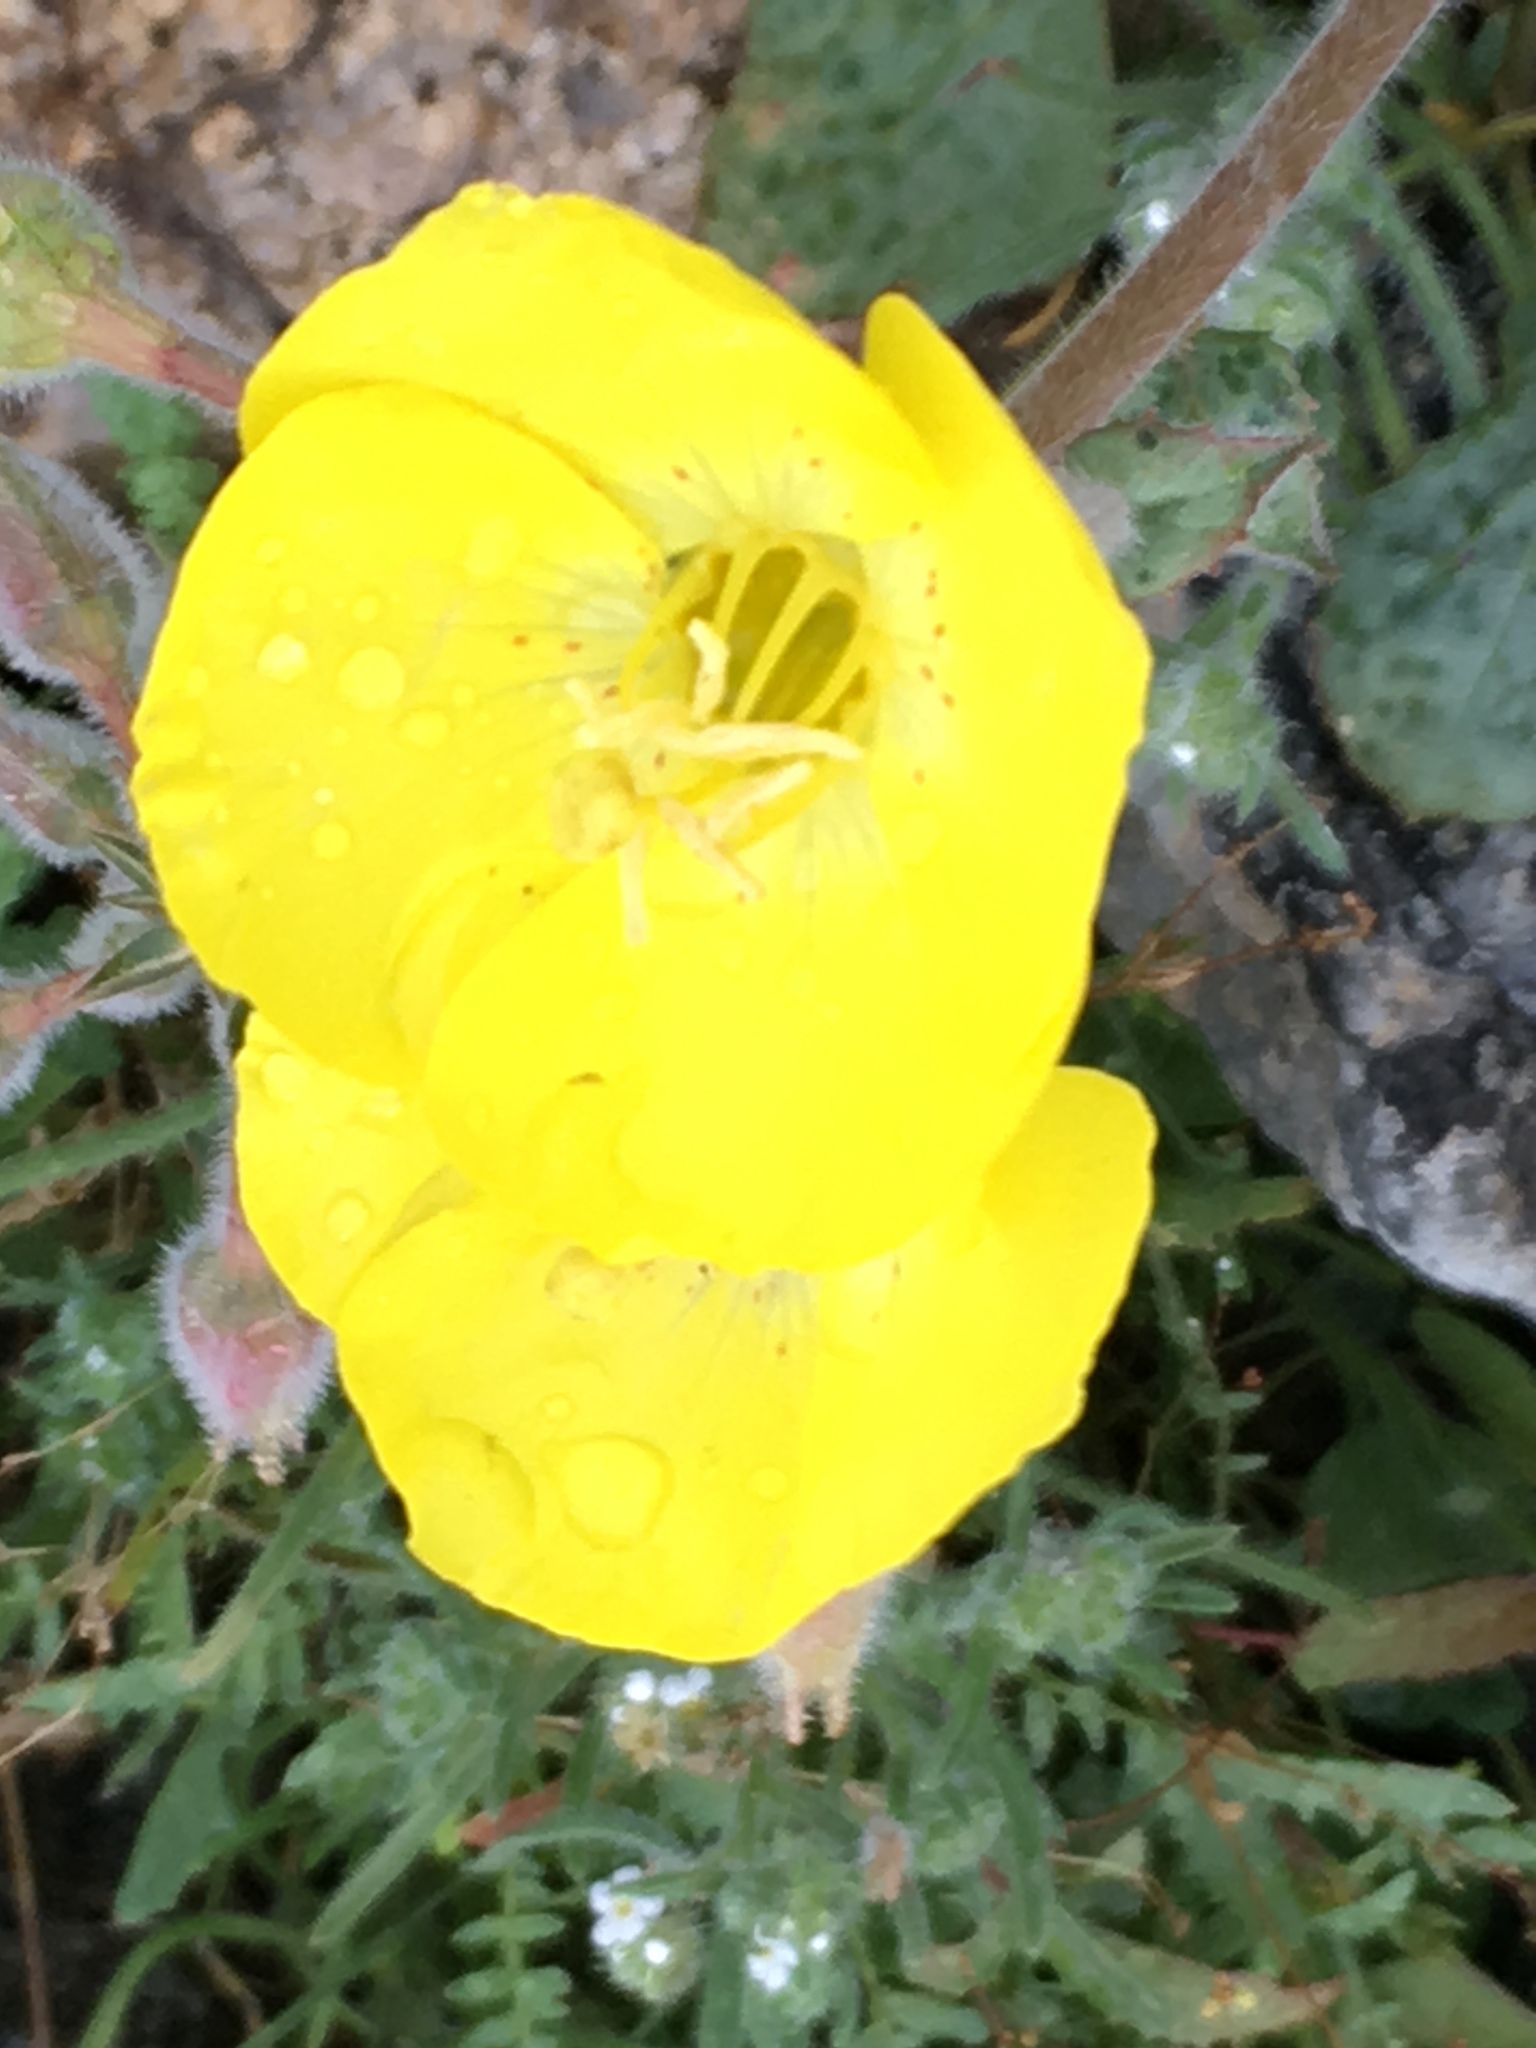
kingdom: Plantae
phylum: Tracheophyta
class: Magnoliopsida
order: Myrtales
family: Onagraceae
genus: Chylismia
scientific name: Chylismia brevipes
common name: Yellow cups
